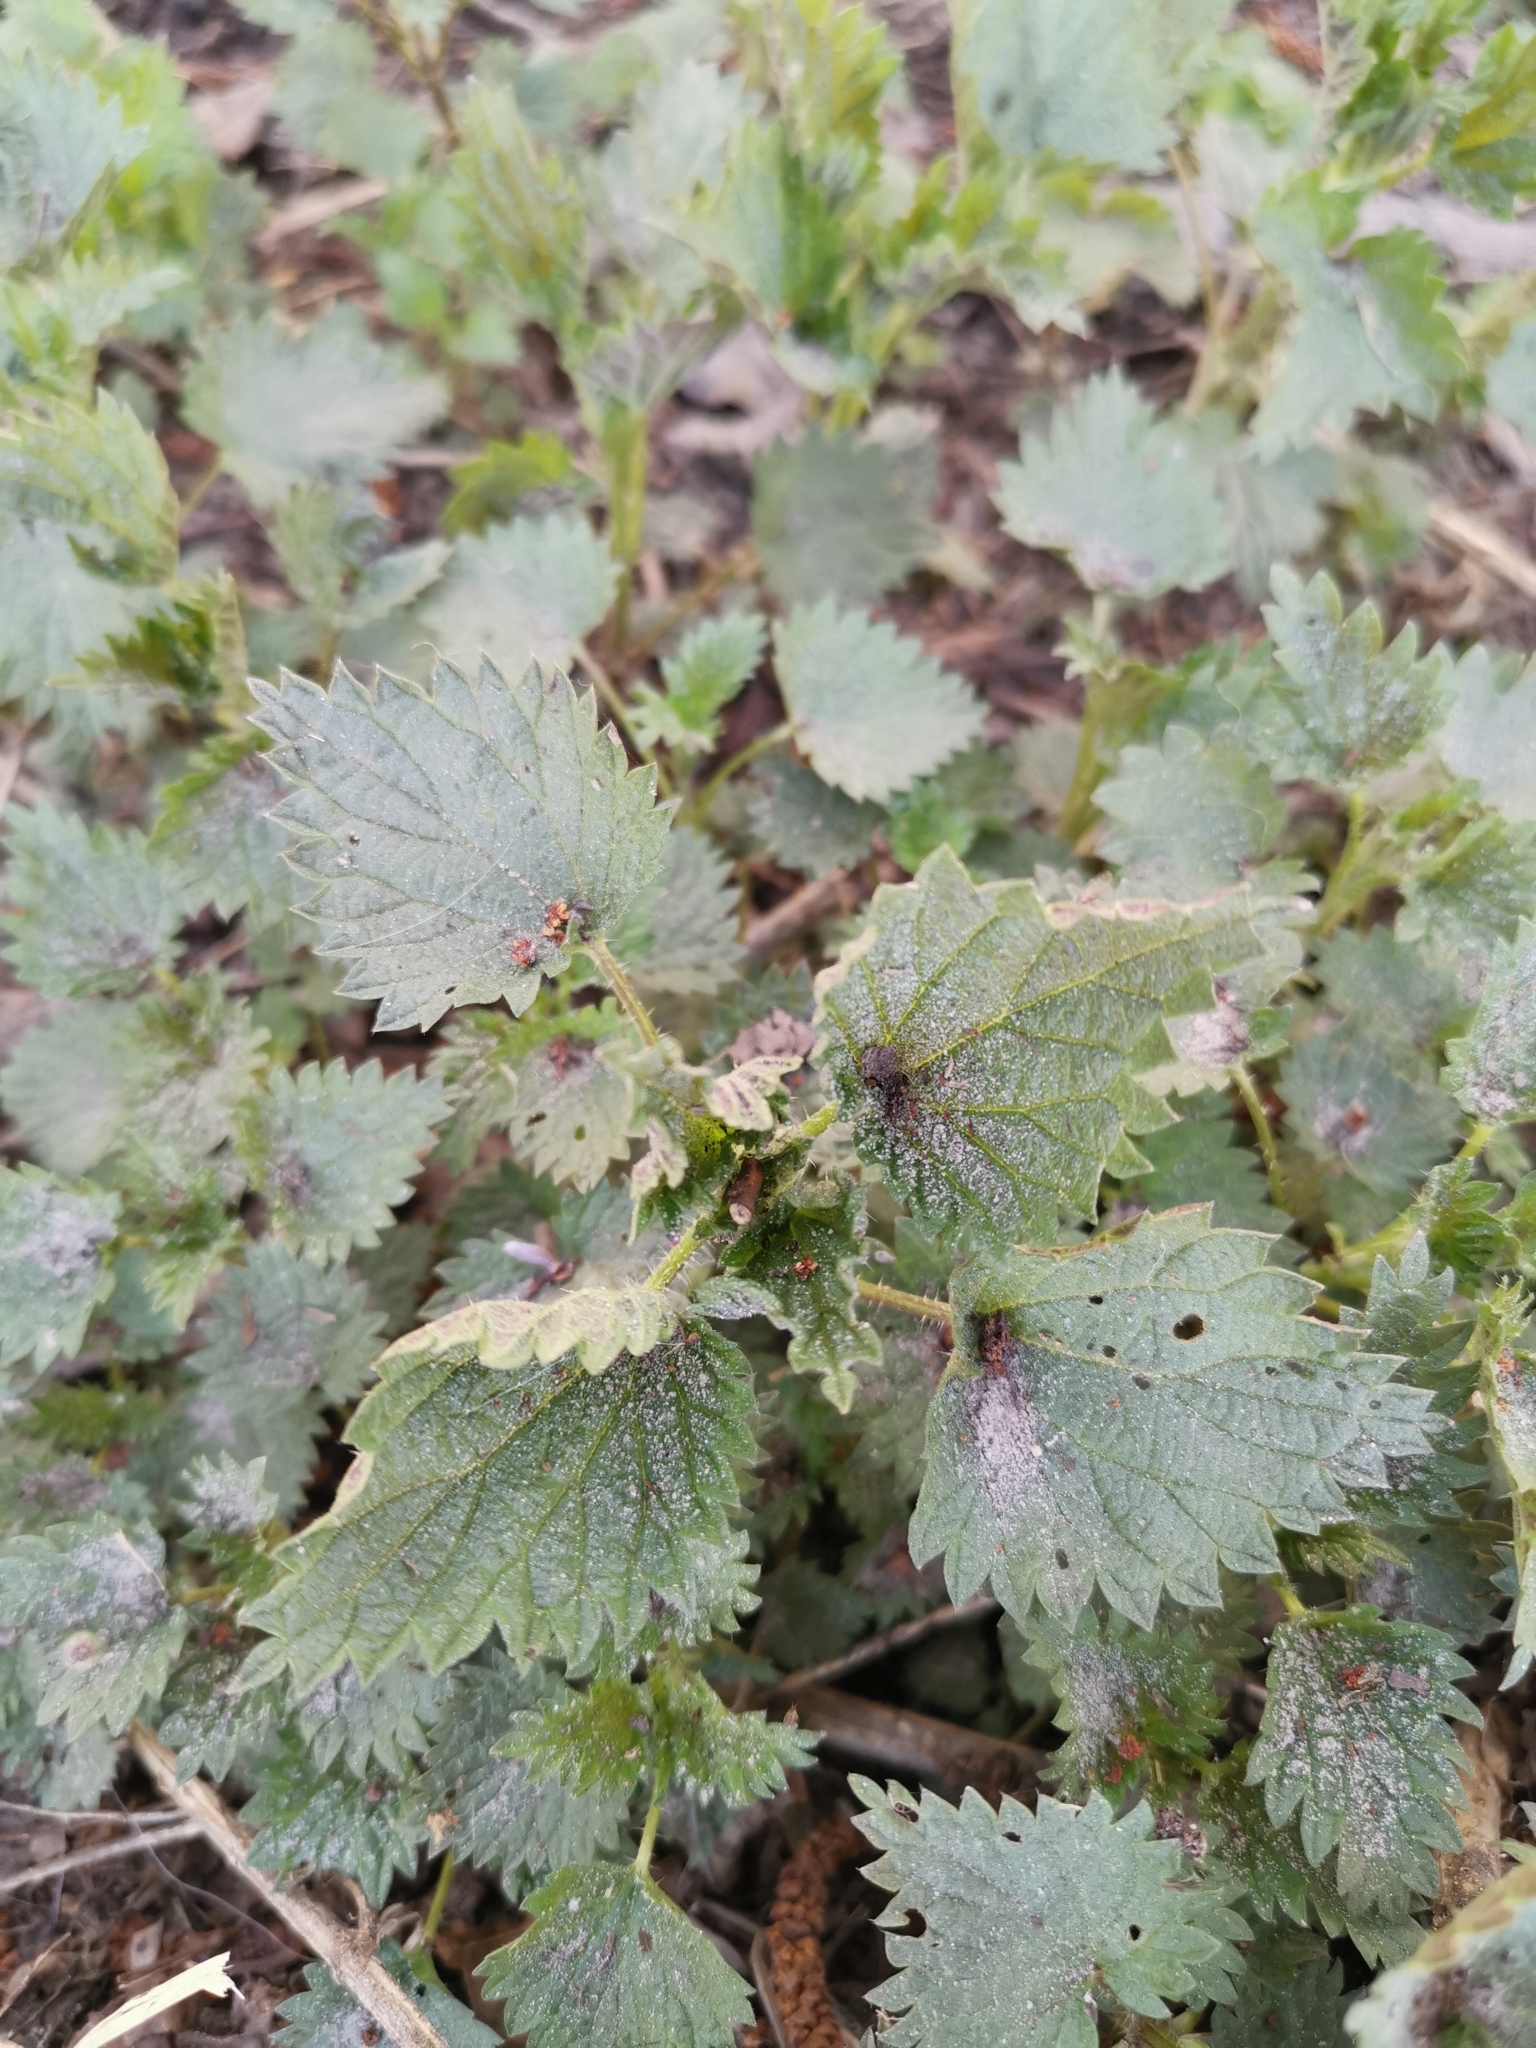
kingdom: Plantae
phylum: Tracheophyta
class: Magnoliopsida
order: Rosales
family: Urticaceae
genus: Urtica
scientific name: Urtica dioica
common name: Common nettle
